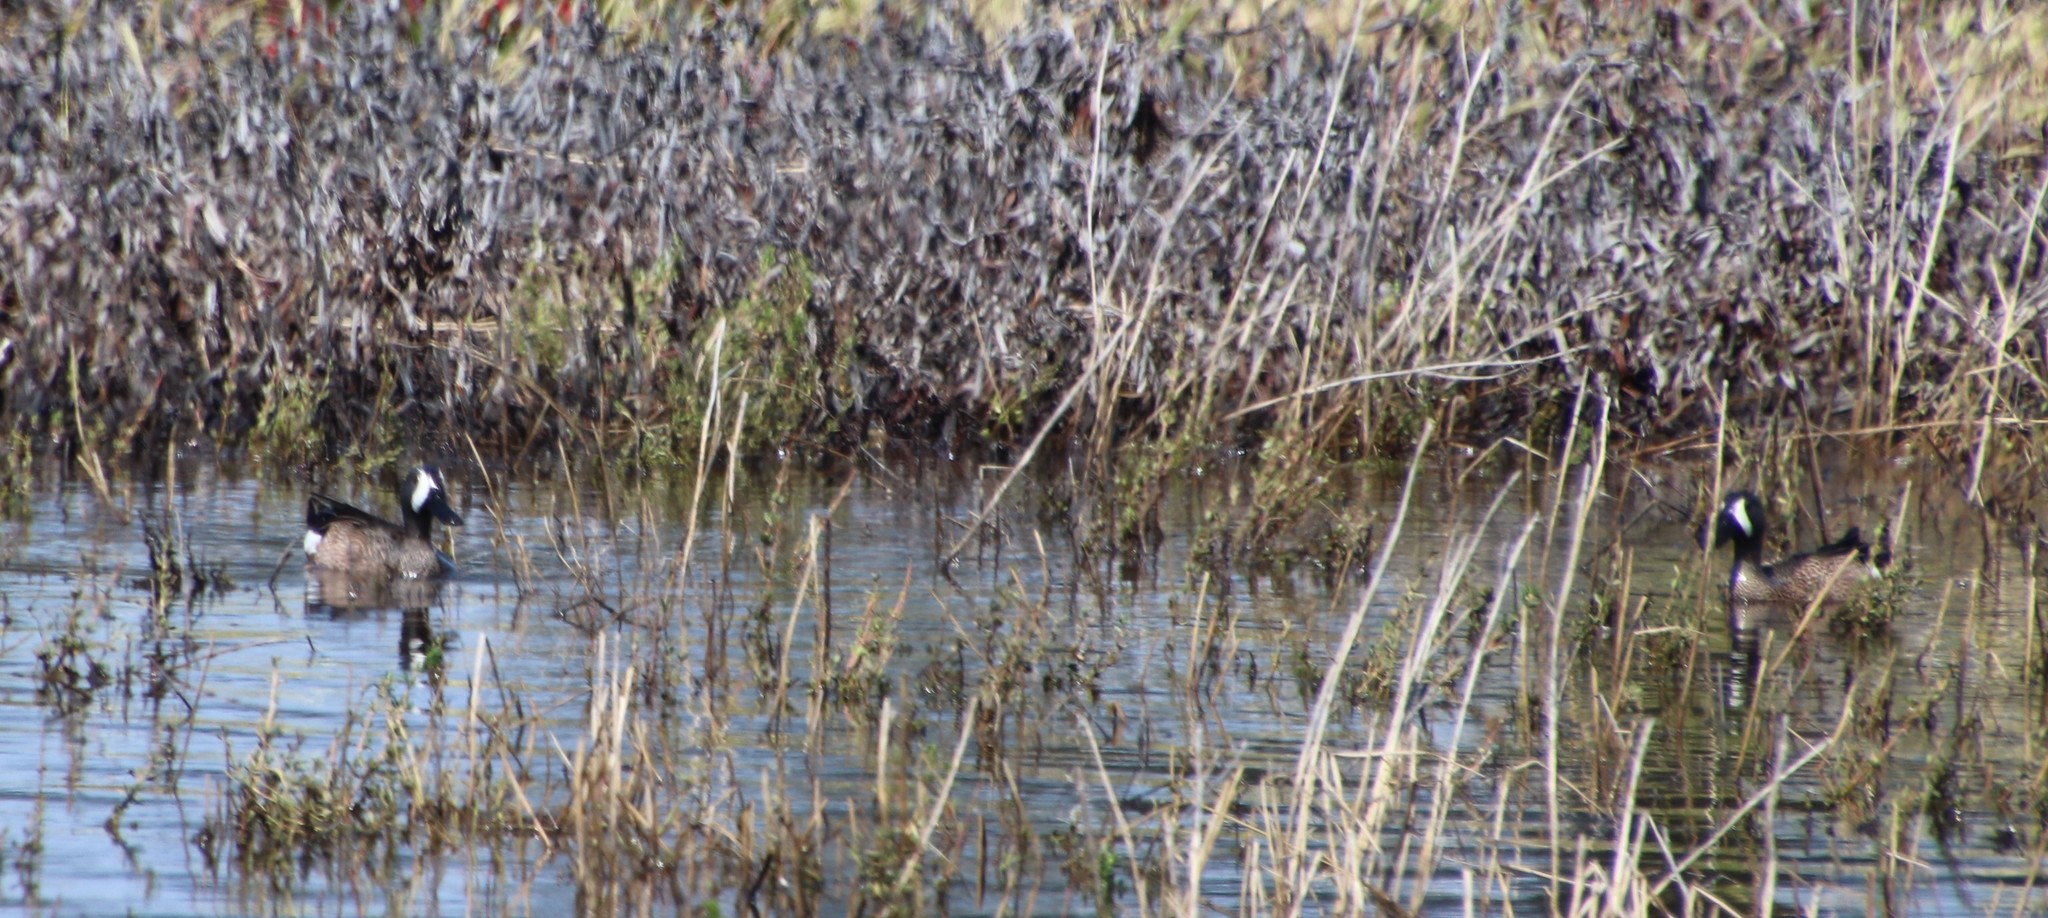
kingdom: Animalia
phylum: Chordata
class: Aves
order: Anseriformes
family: Anatidae
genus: Spatula
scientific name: Spatula discors
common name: Blue-winged teal
